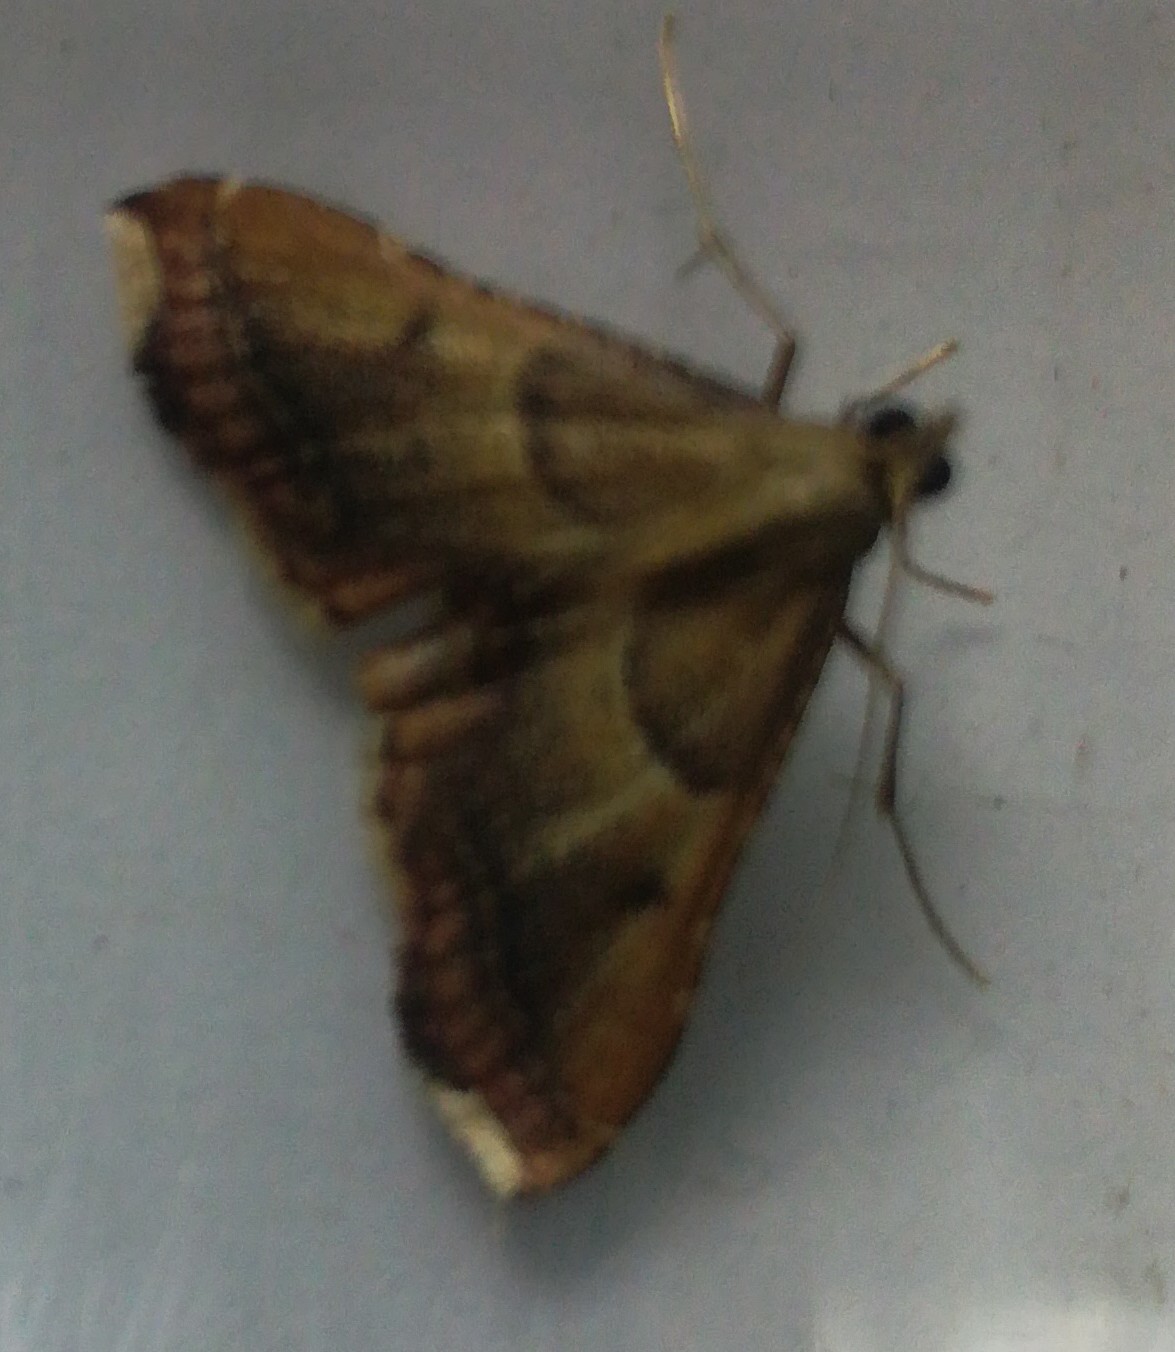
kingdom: Animalia
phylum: Arthropoda
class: Insecta
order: Lepidoptera
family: Pyralidae
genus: Endotricha
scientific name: Endotricha flammealis
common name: Rosy tabby
